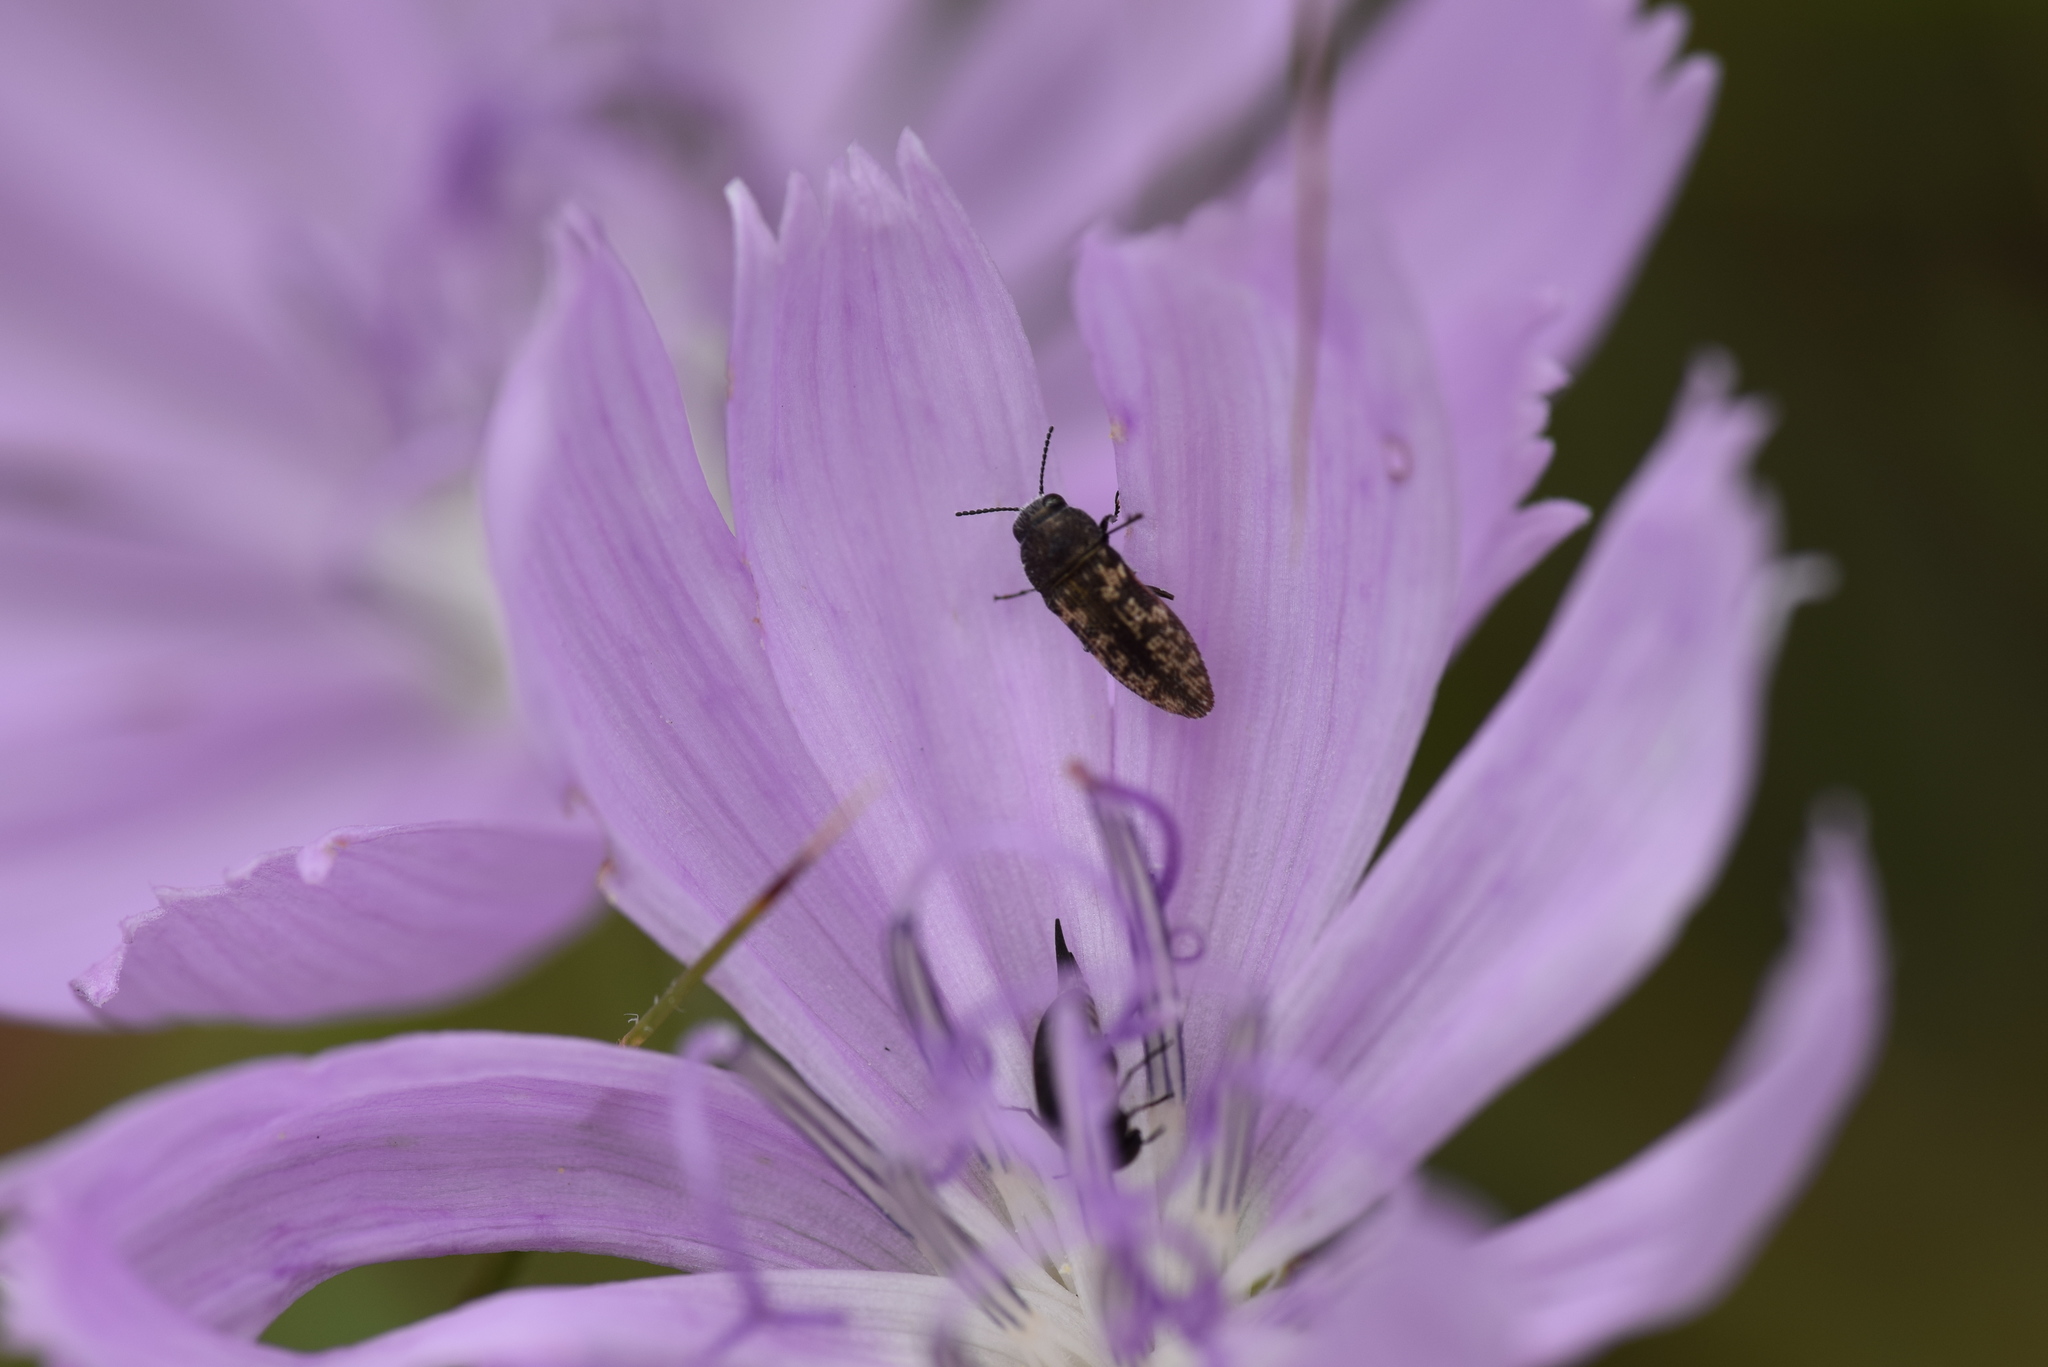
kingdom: Animalia
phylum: Arthropoda
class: Insecta
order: Coleoptera
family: Buprestidae
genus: Acmaeodera
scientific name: Acmaeodera neglecta
